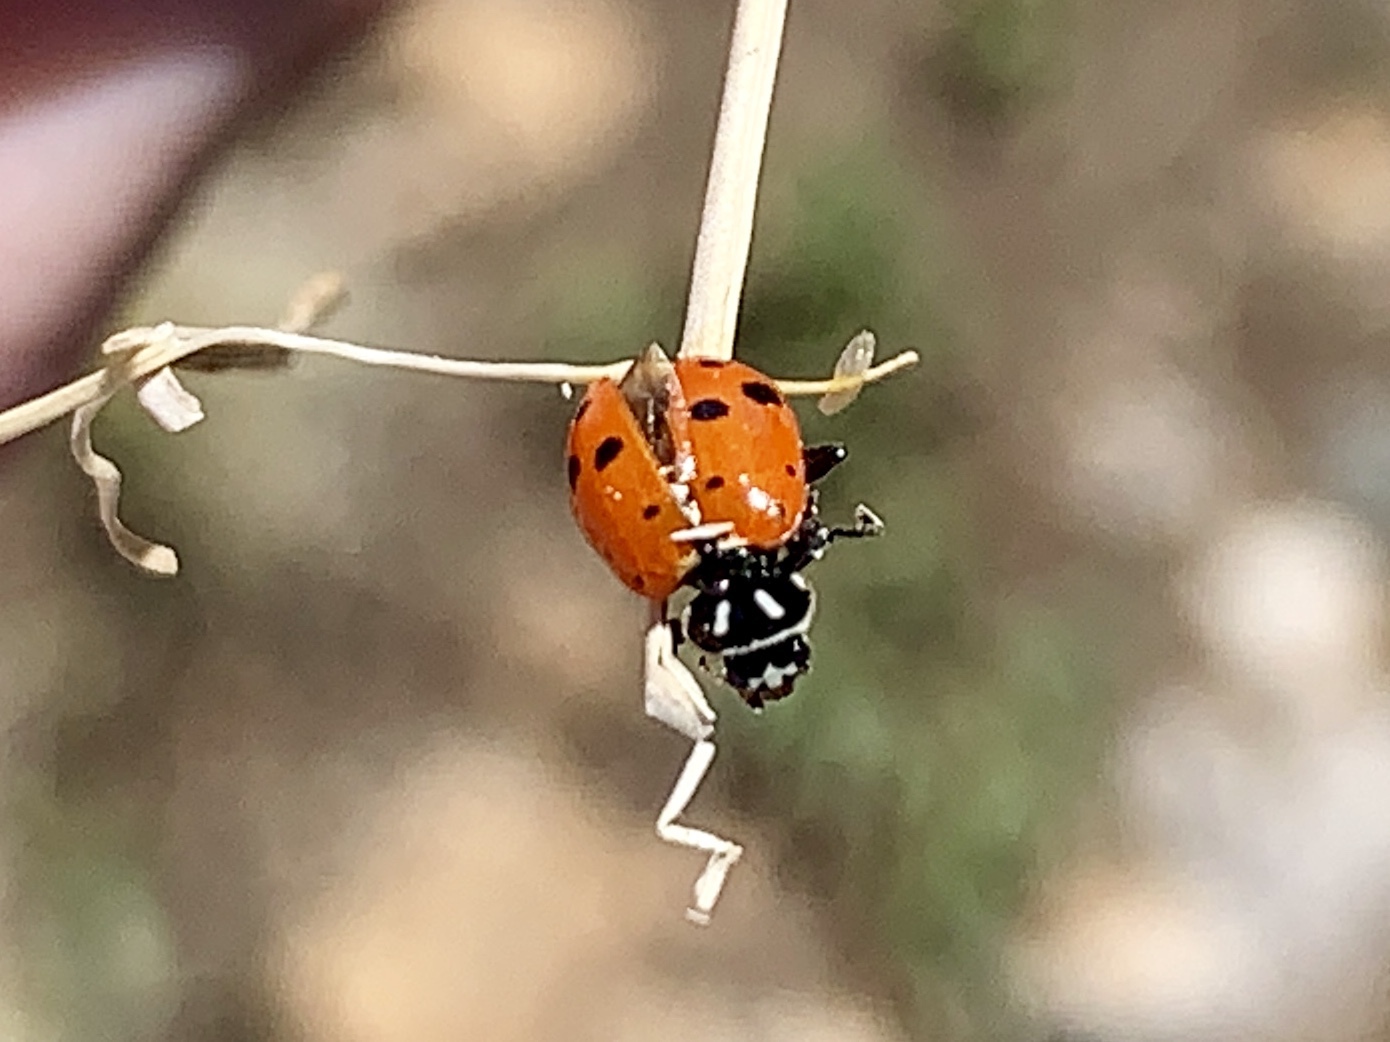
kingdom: Animalia
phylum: Arthropoda
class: Insecta
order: Coleoptera
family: Coccinellidae
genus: Hippodamia
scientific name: Hippodamia convergens
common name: Convergent lady beetle
